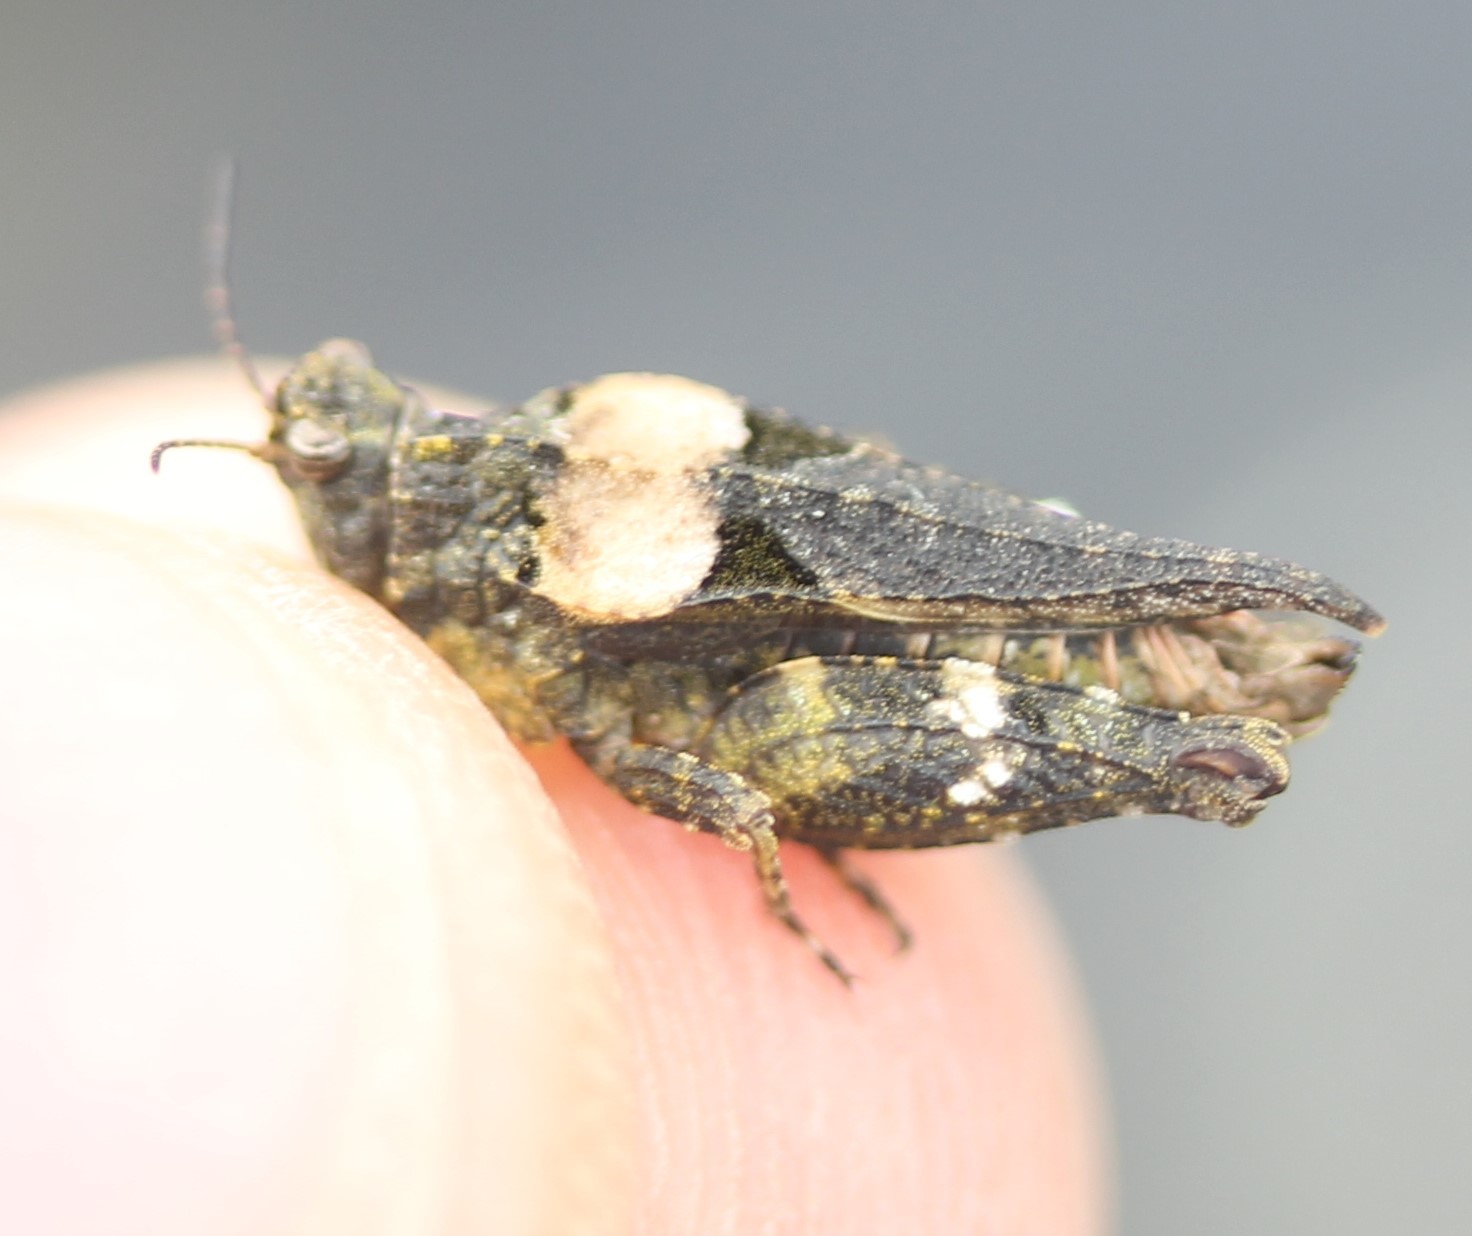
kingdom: Animalia
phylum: Arthropoda
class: Insecta
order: Orthoptera
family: Tetrigidae
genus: Tetrix
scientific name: Tetrix ornata
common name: Ornate grouse locust
